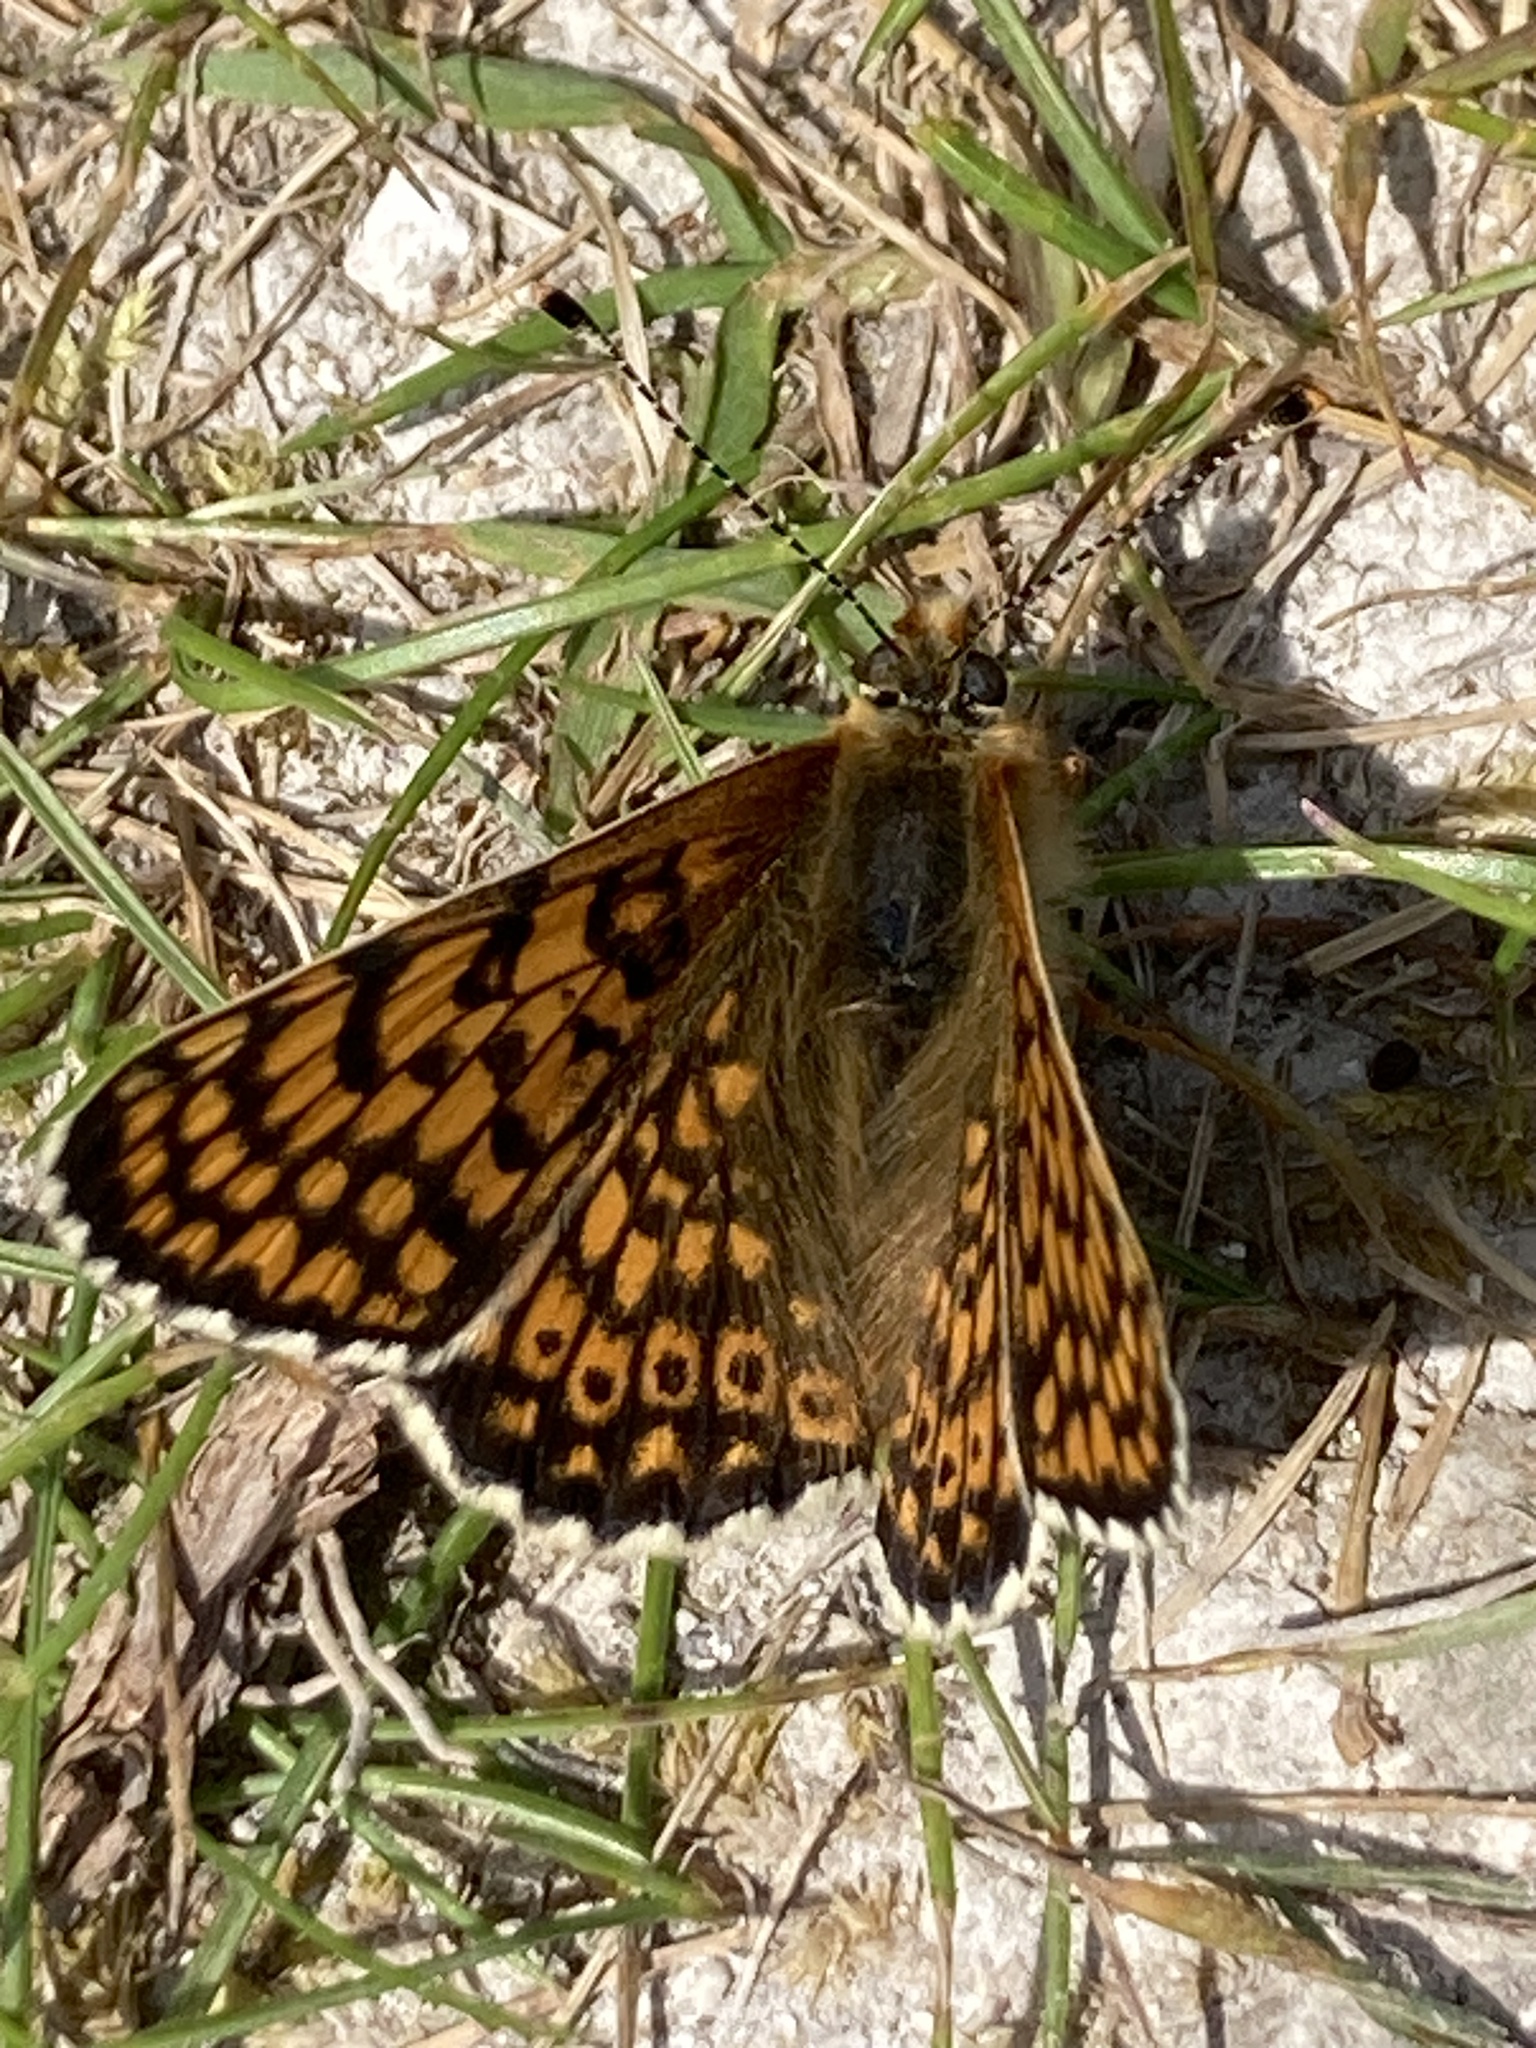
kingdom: Animalia
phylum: Arthropoda
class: Insecta
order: Lepidoptera
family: Nymphalidae
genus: Melitaea
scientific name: Melitaea cinxia
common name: Glanville fritillary
